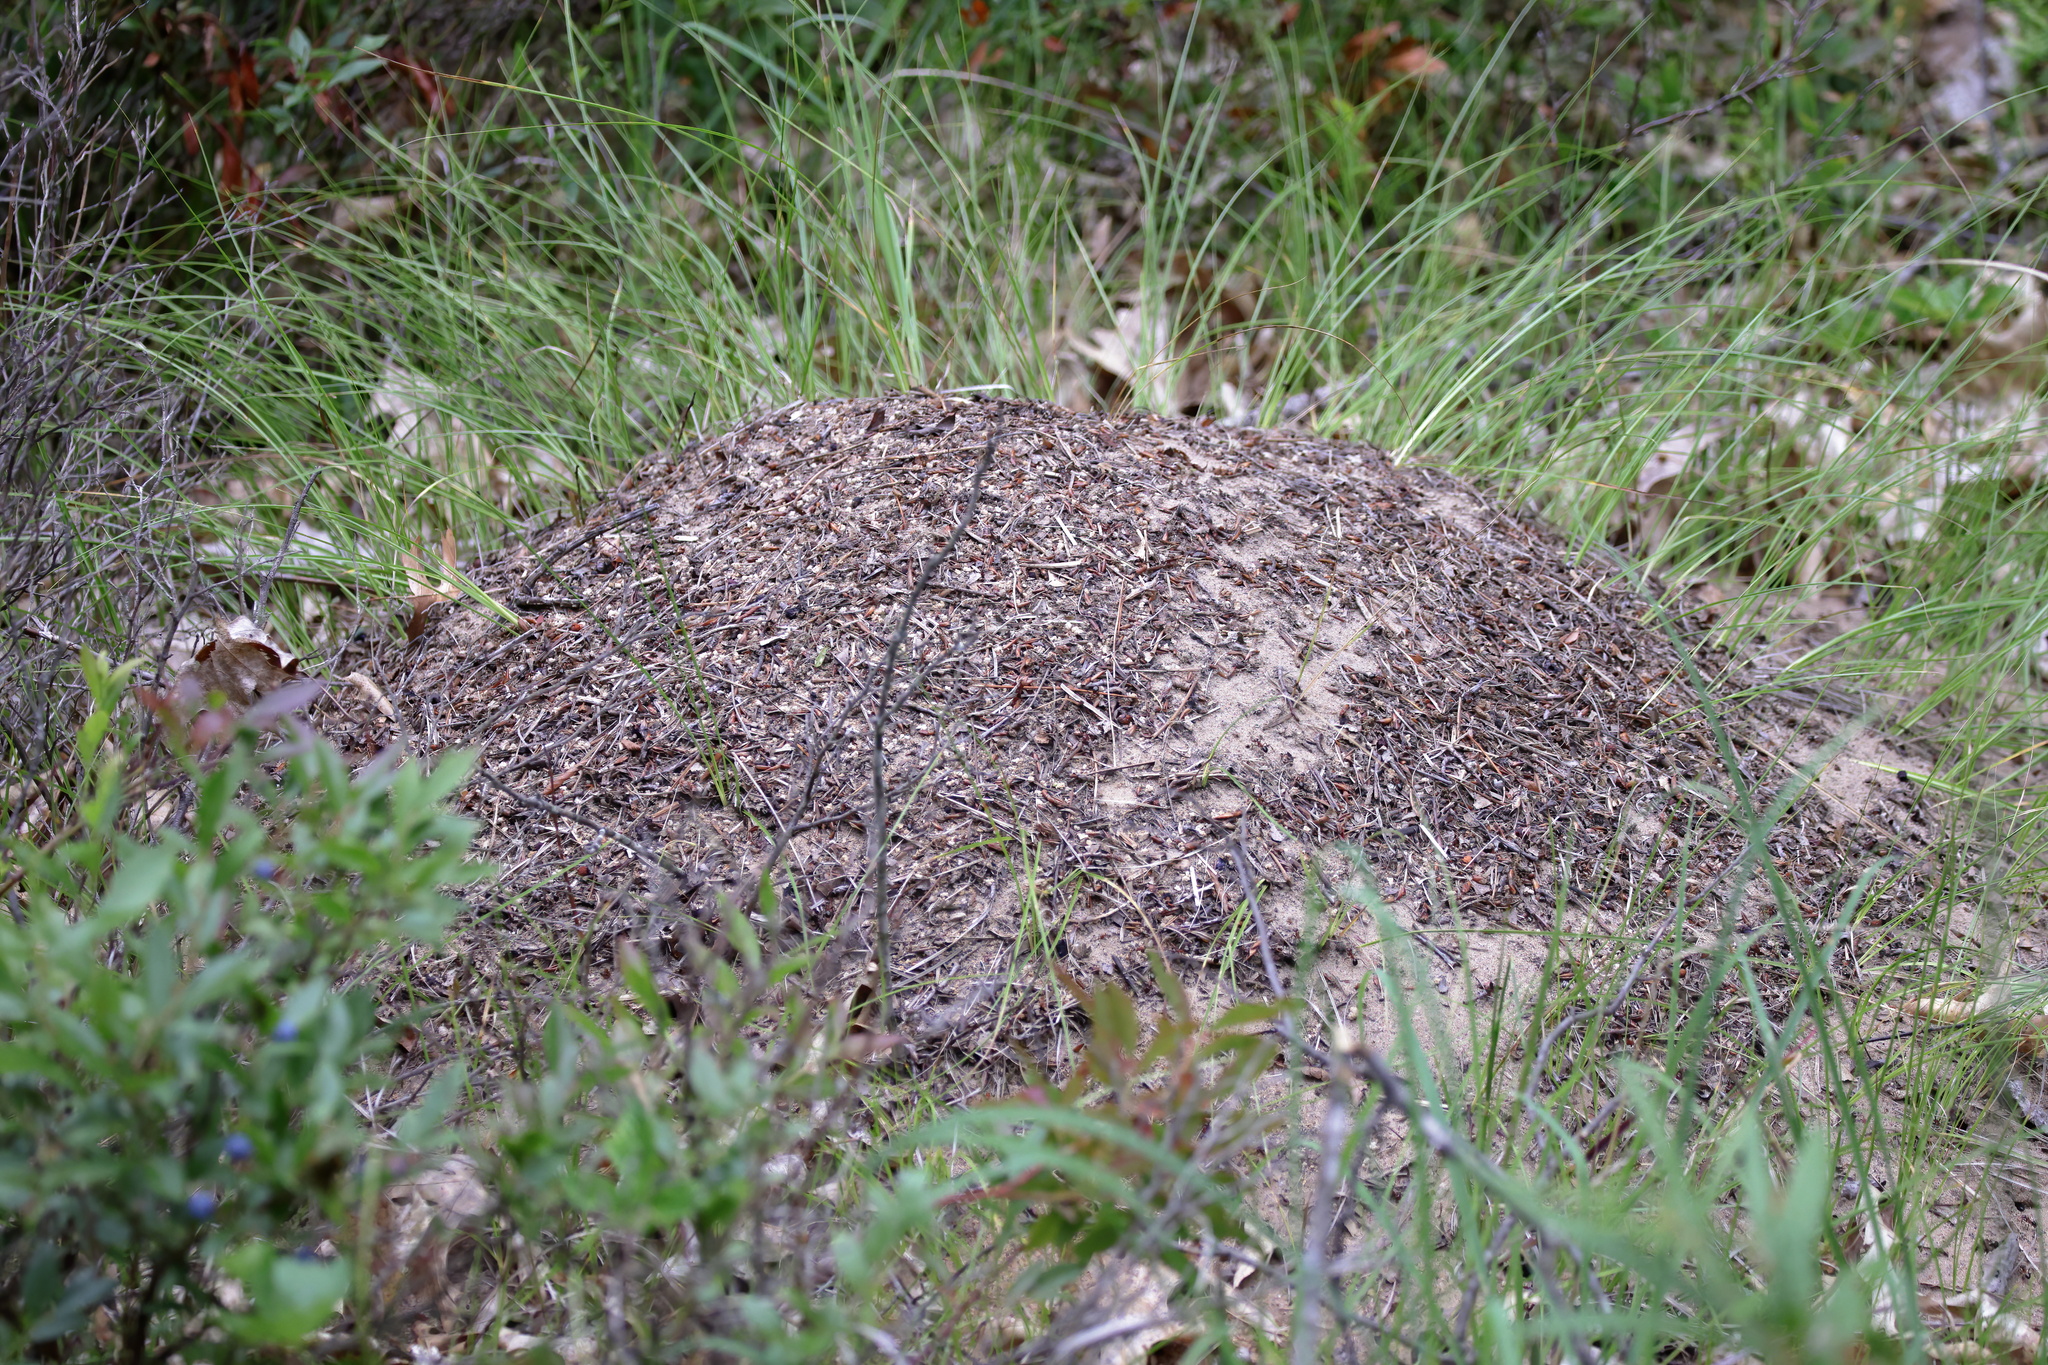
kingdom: Animalia
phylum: Arthropoda
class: Insecta
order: Hymenoptera
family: Formicidae
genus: Formica
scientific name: Formica ulkei
